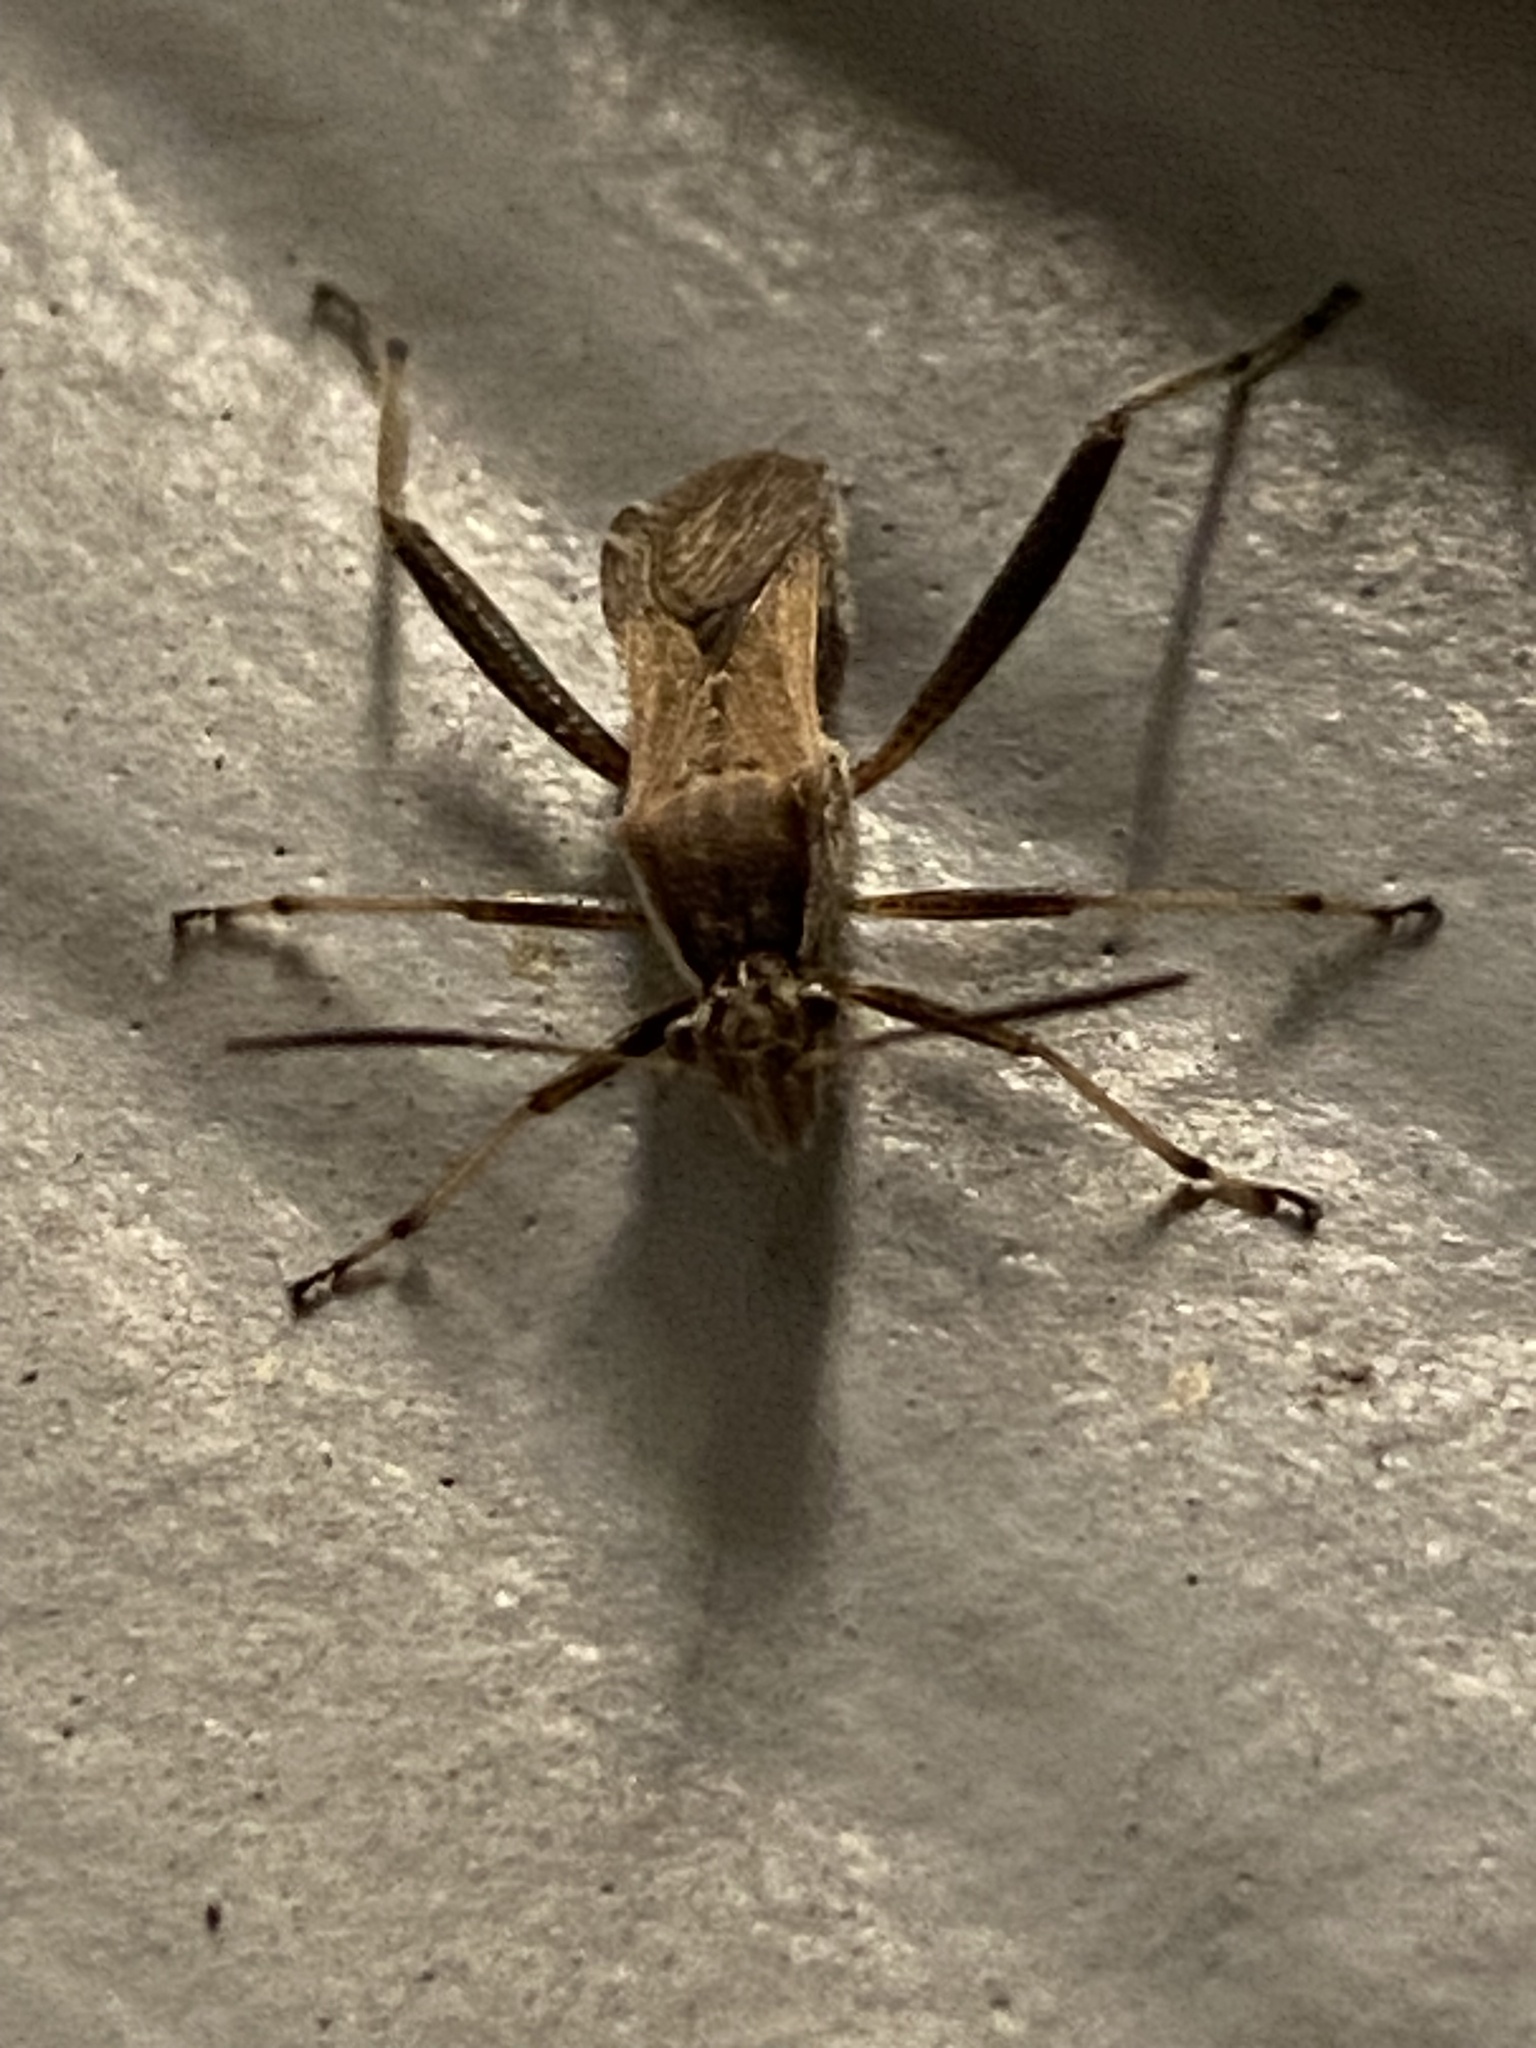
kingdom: Animalia
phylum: Arthropoda
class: Insecta
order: Hemiptera
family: Alydidae
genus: Alydus
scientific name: Alydus pilosulus
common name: Broad-headed bug
